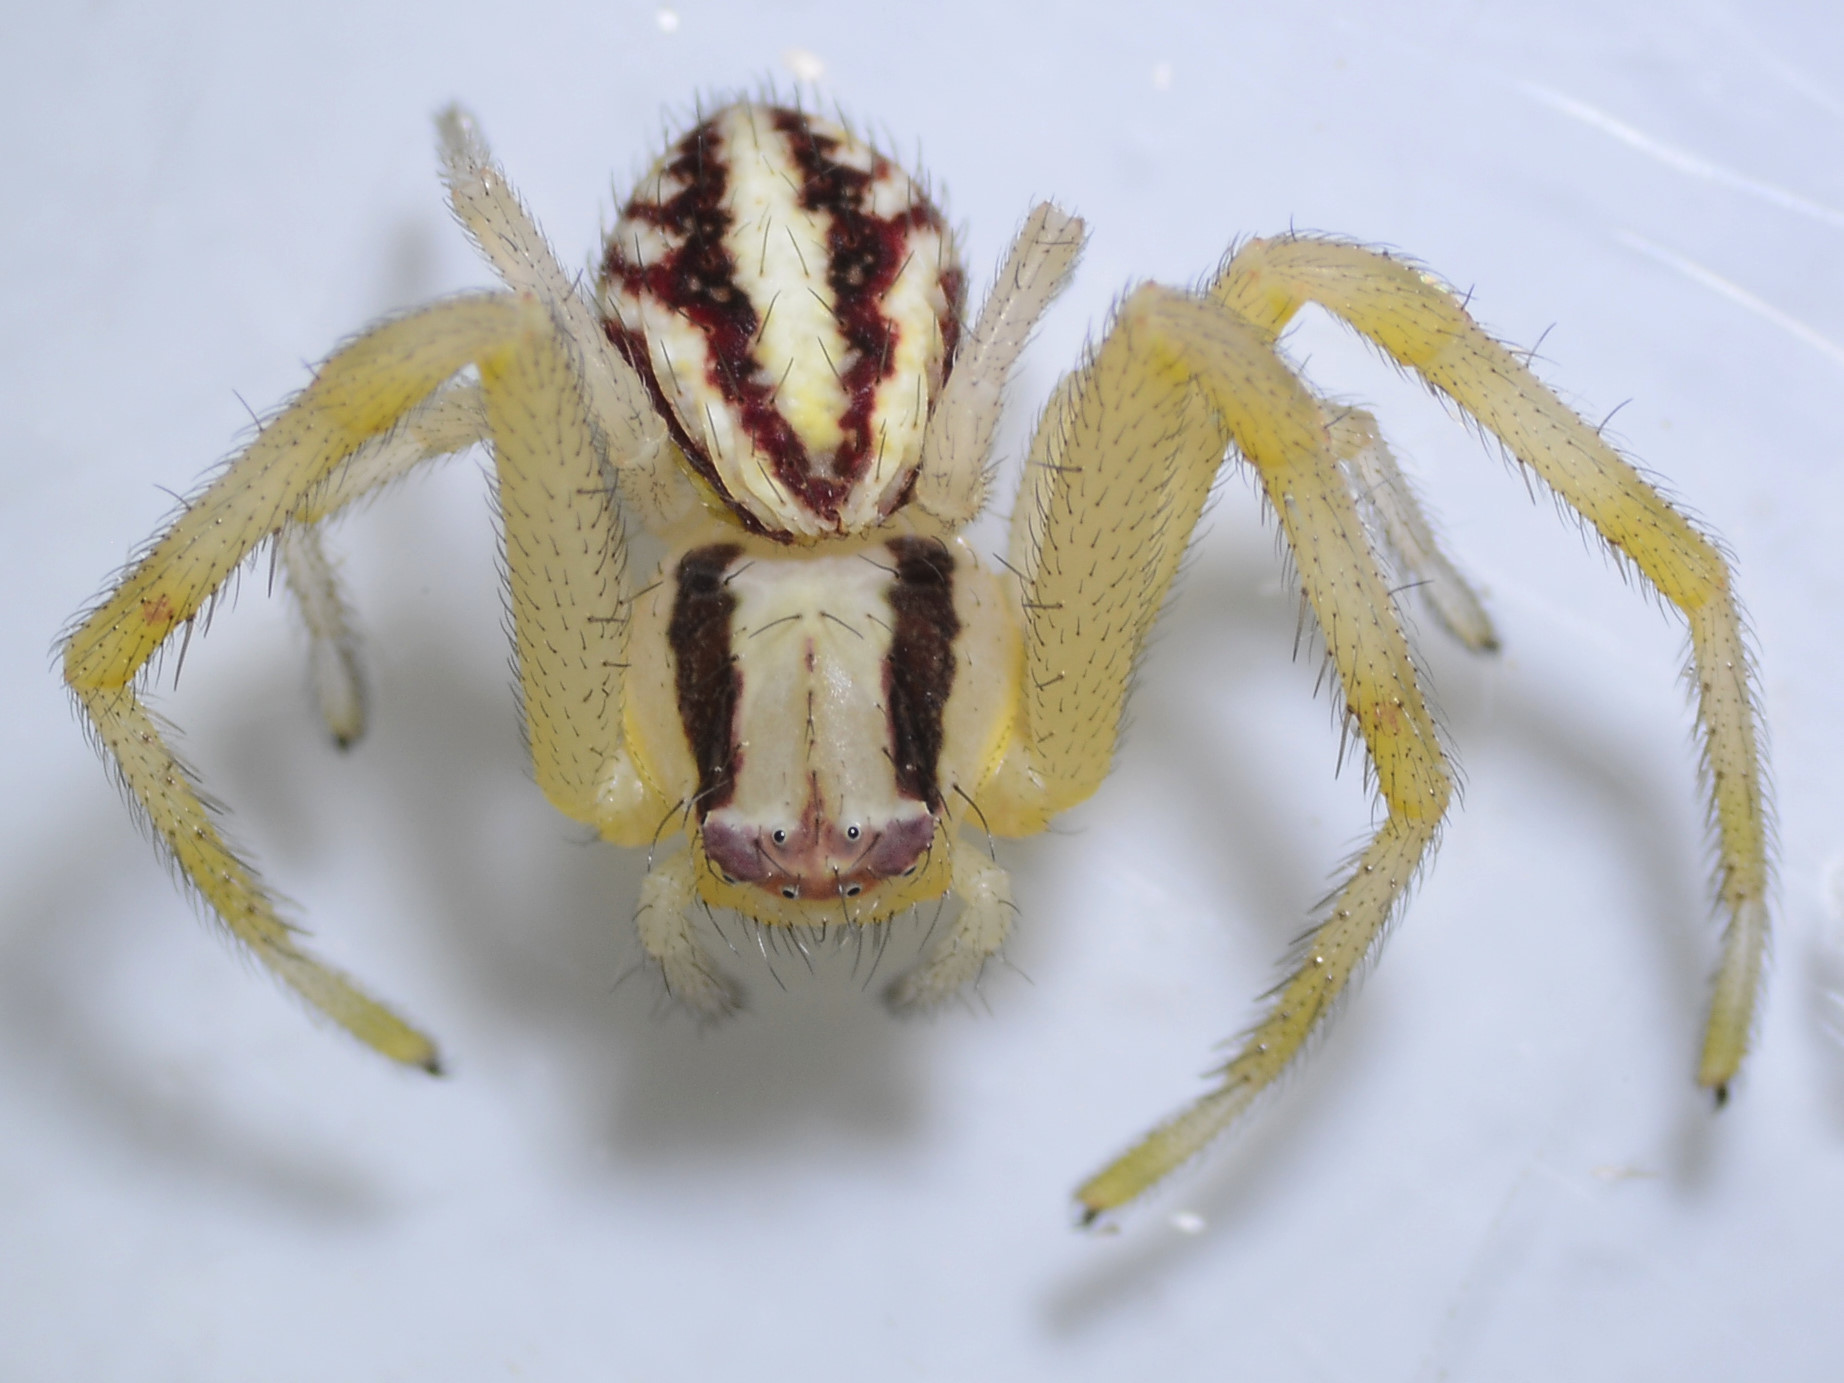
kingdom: Animalia
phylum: Arthropoda
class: Arachnida
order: Araneae
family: Thomisidae
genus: Mecaphesa
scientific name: Mecaphesa schlingeri
